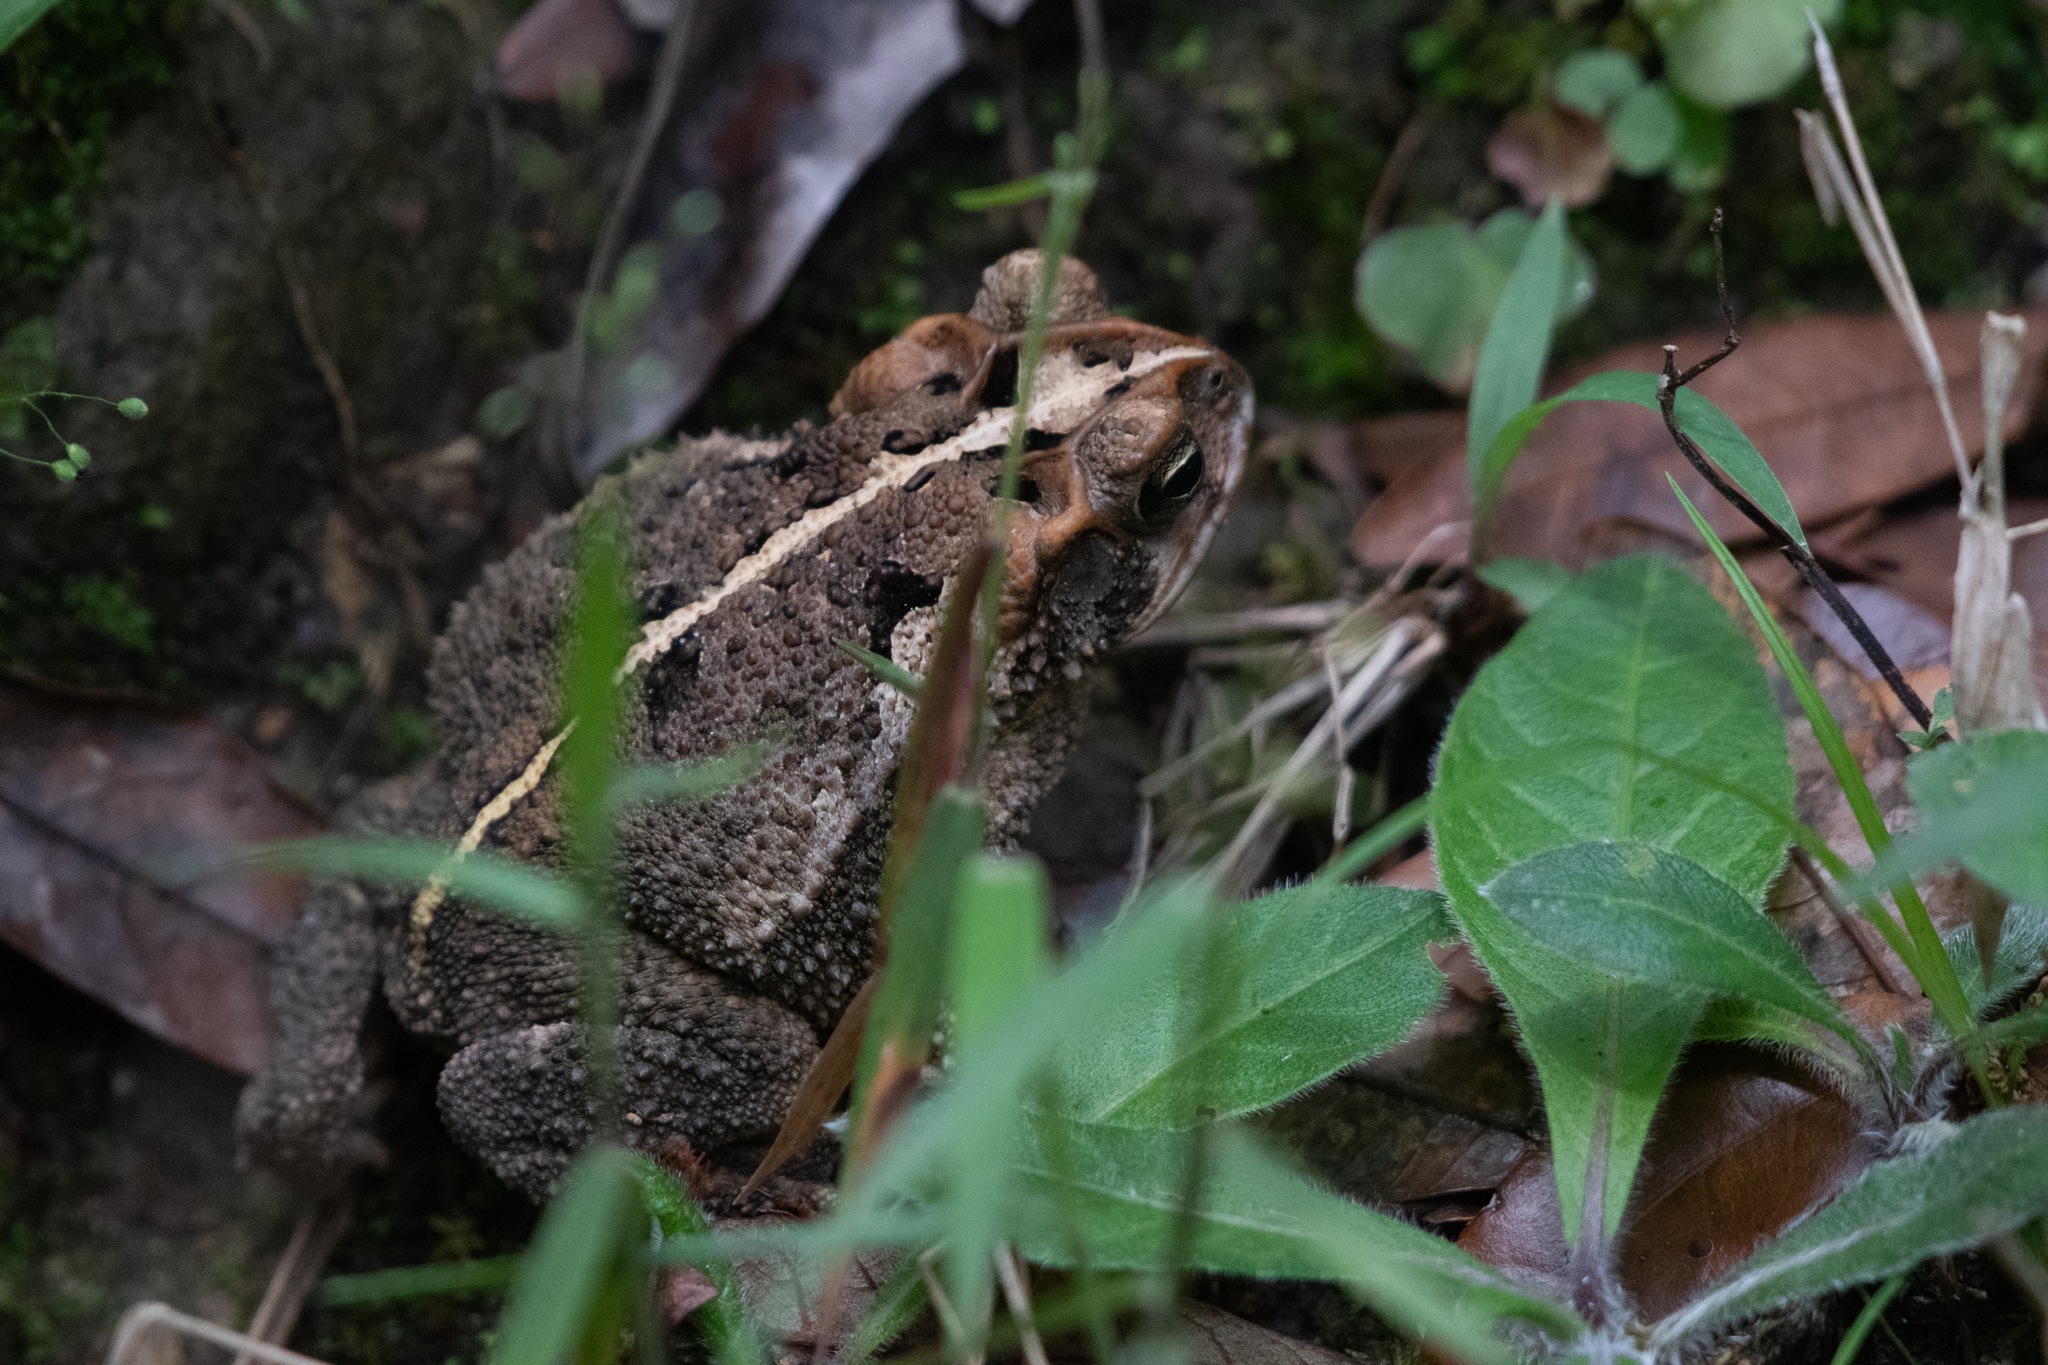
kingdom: Animalia
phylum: Chordata
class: Amphibia
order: Anura
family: Bufonidae
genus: Incilius
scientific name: Incilius porteri
